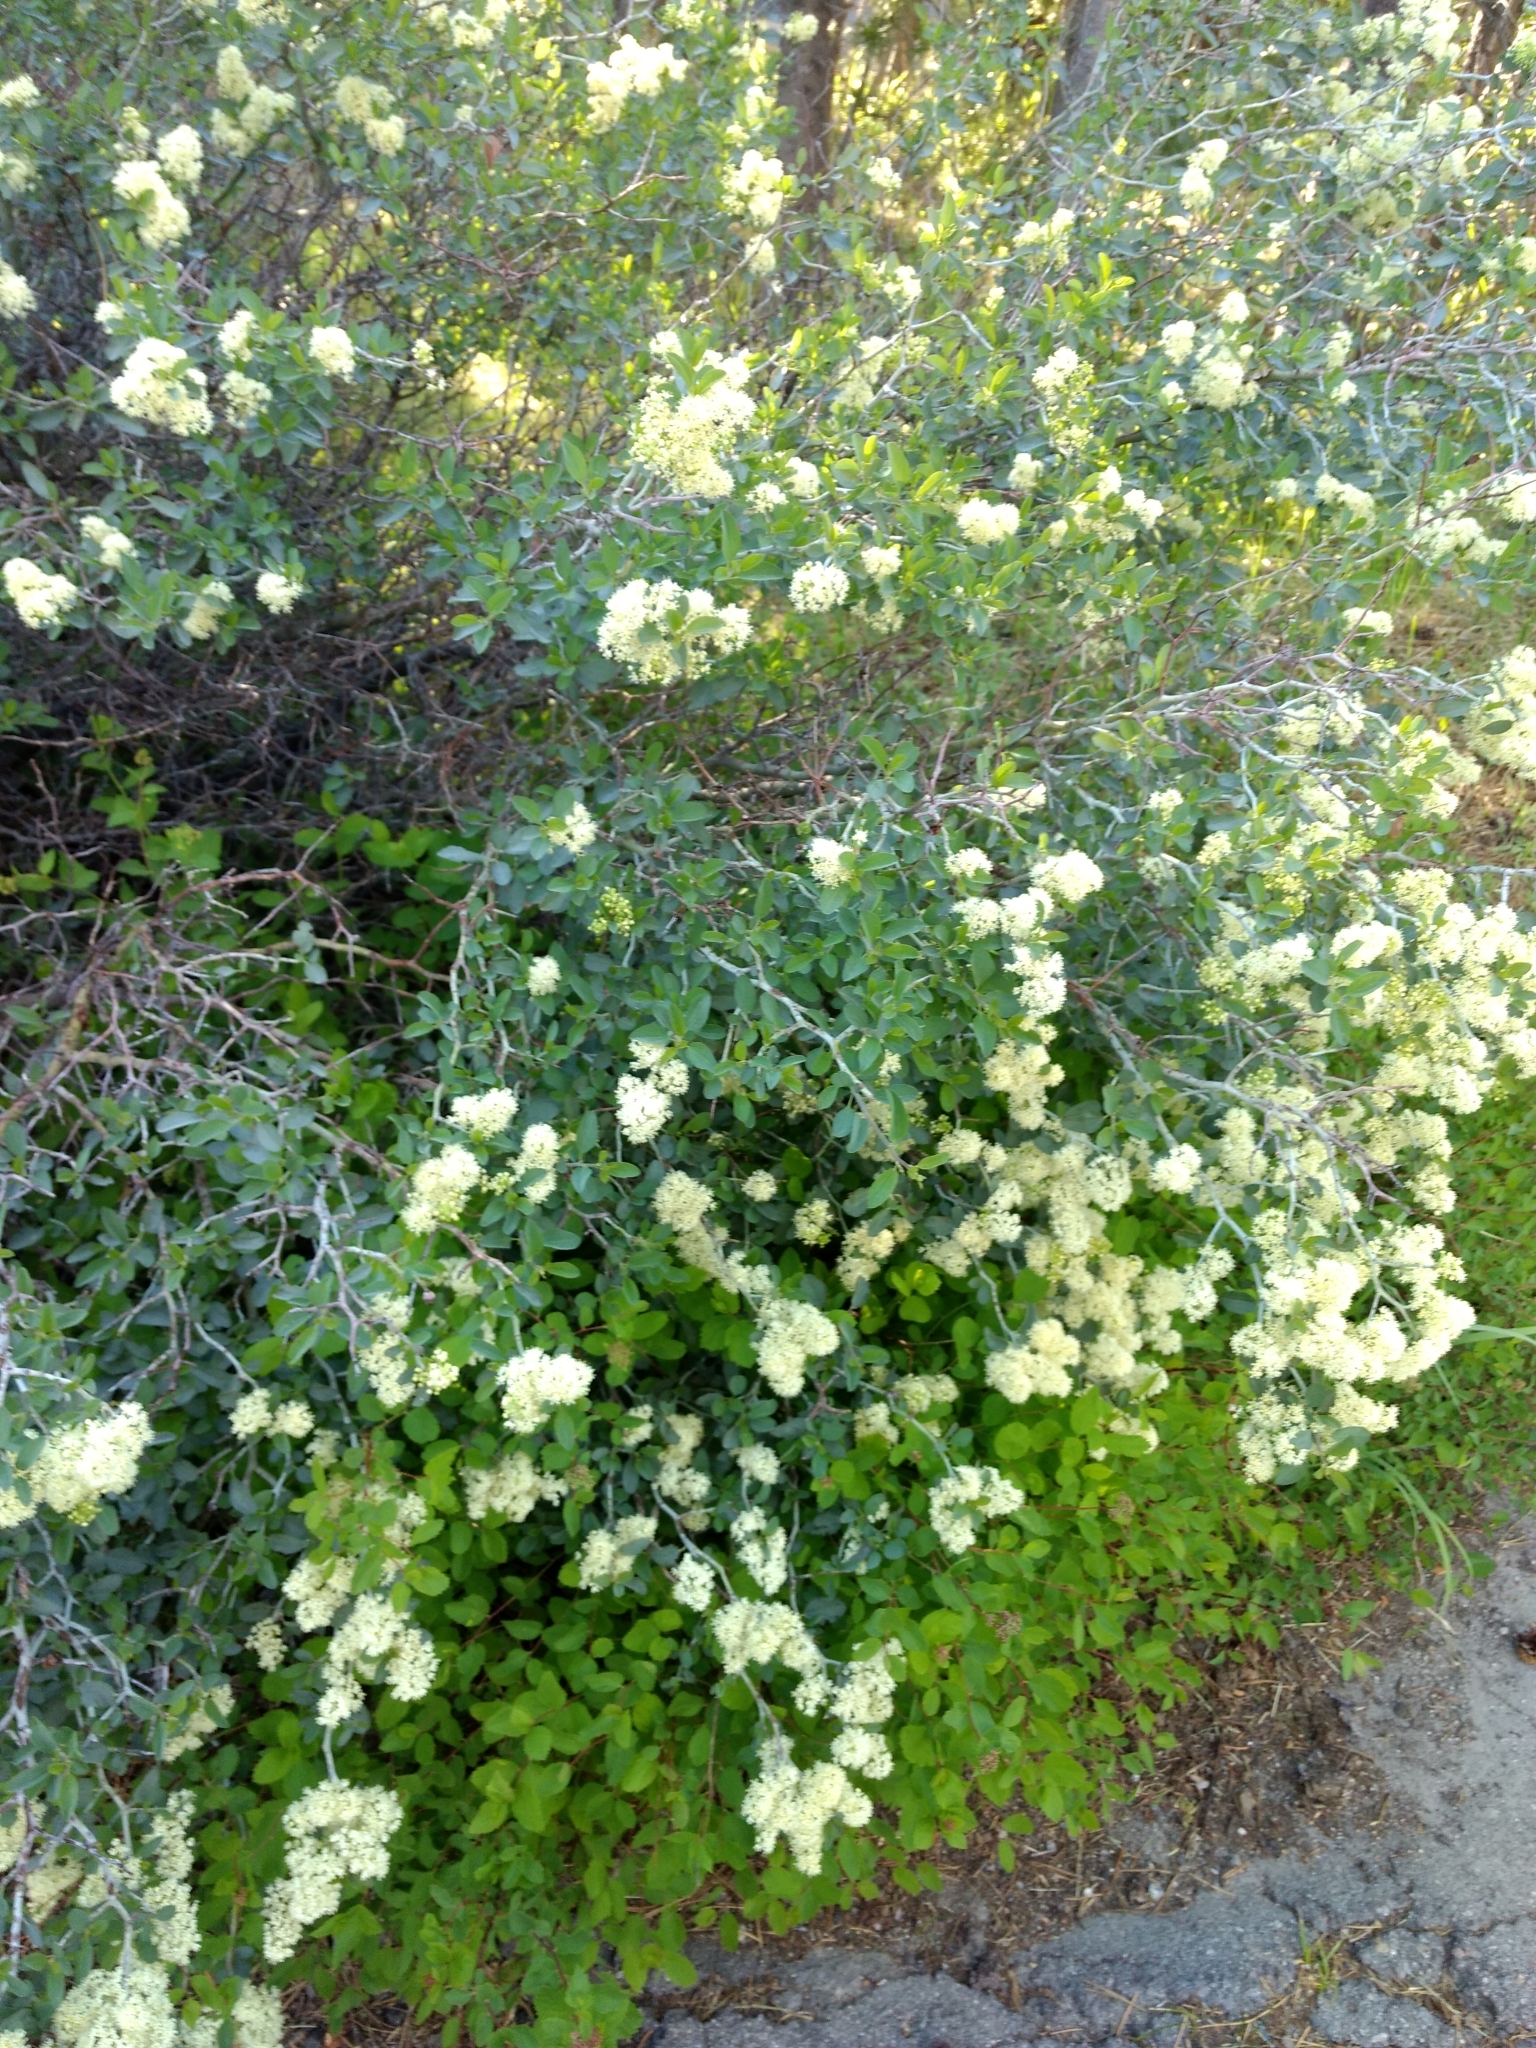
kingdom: Plantae
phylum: Tracheophyta
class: Magnoliopsida
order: Rosales
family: Rhamnaceae
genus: Ceanothus
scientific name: Ceanothus cordulatus
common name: Mountain whitethorn
